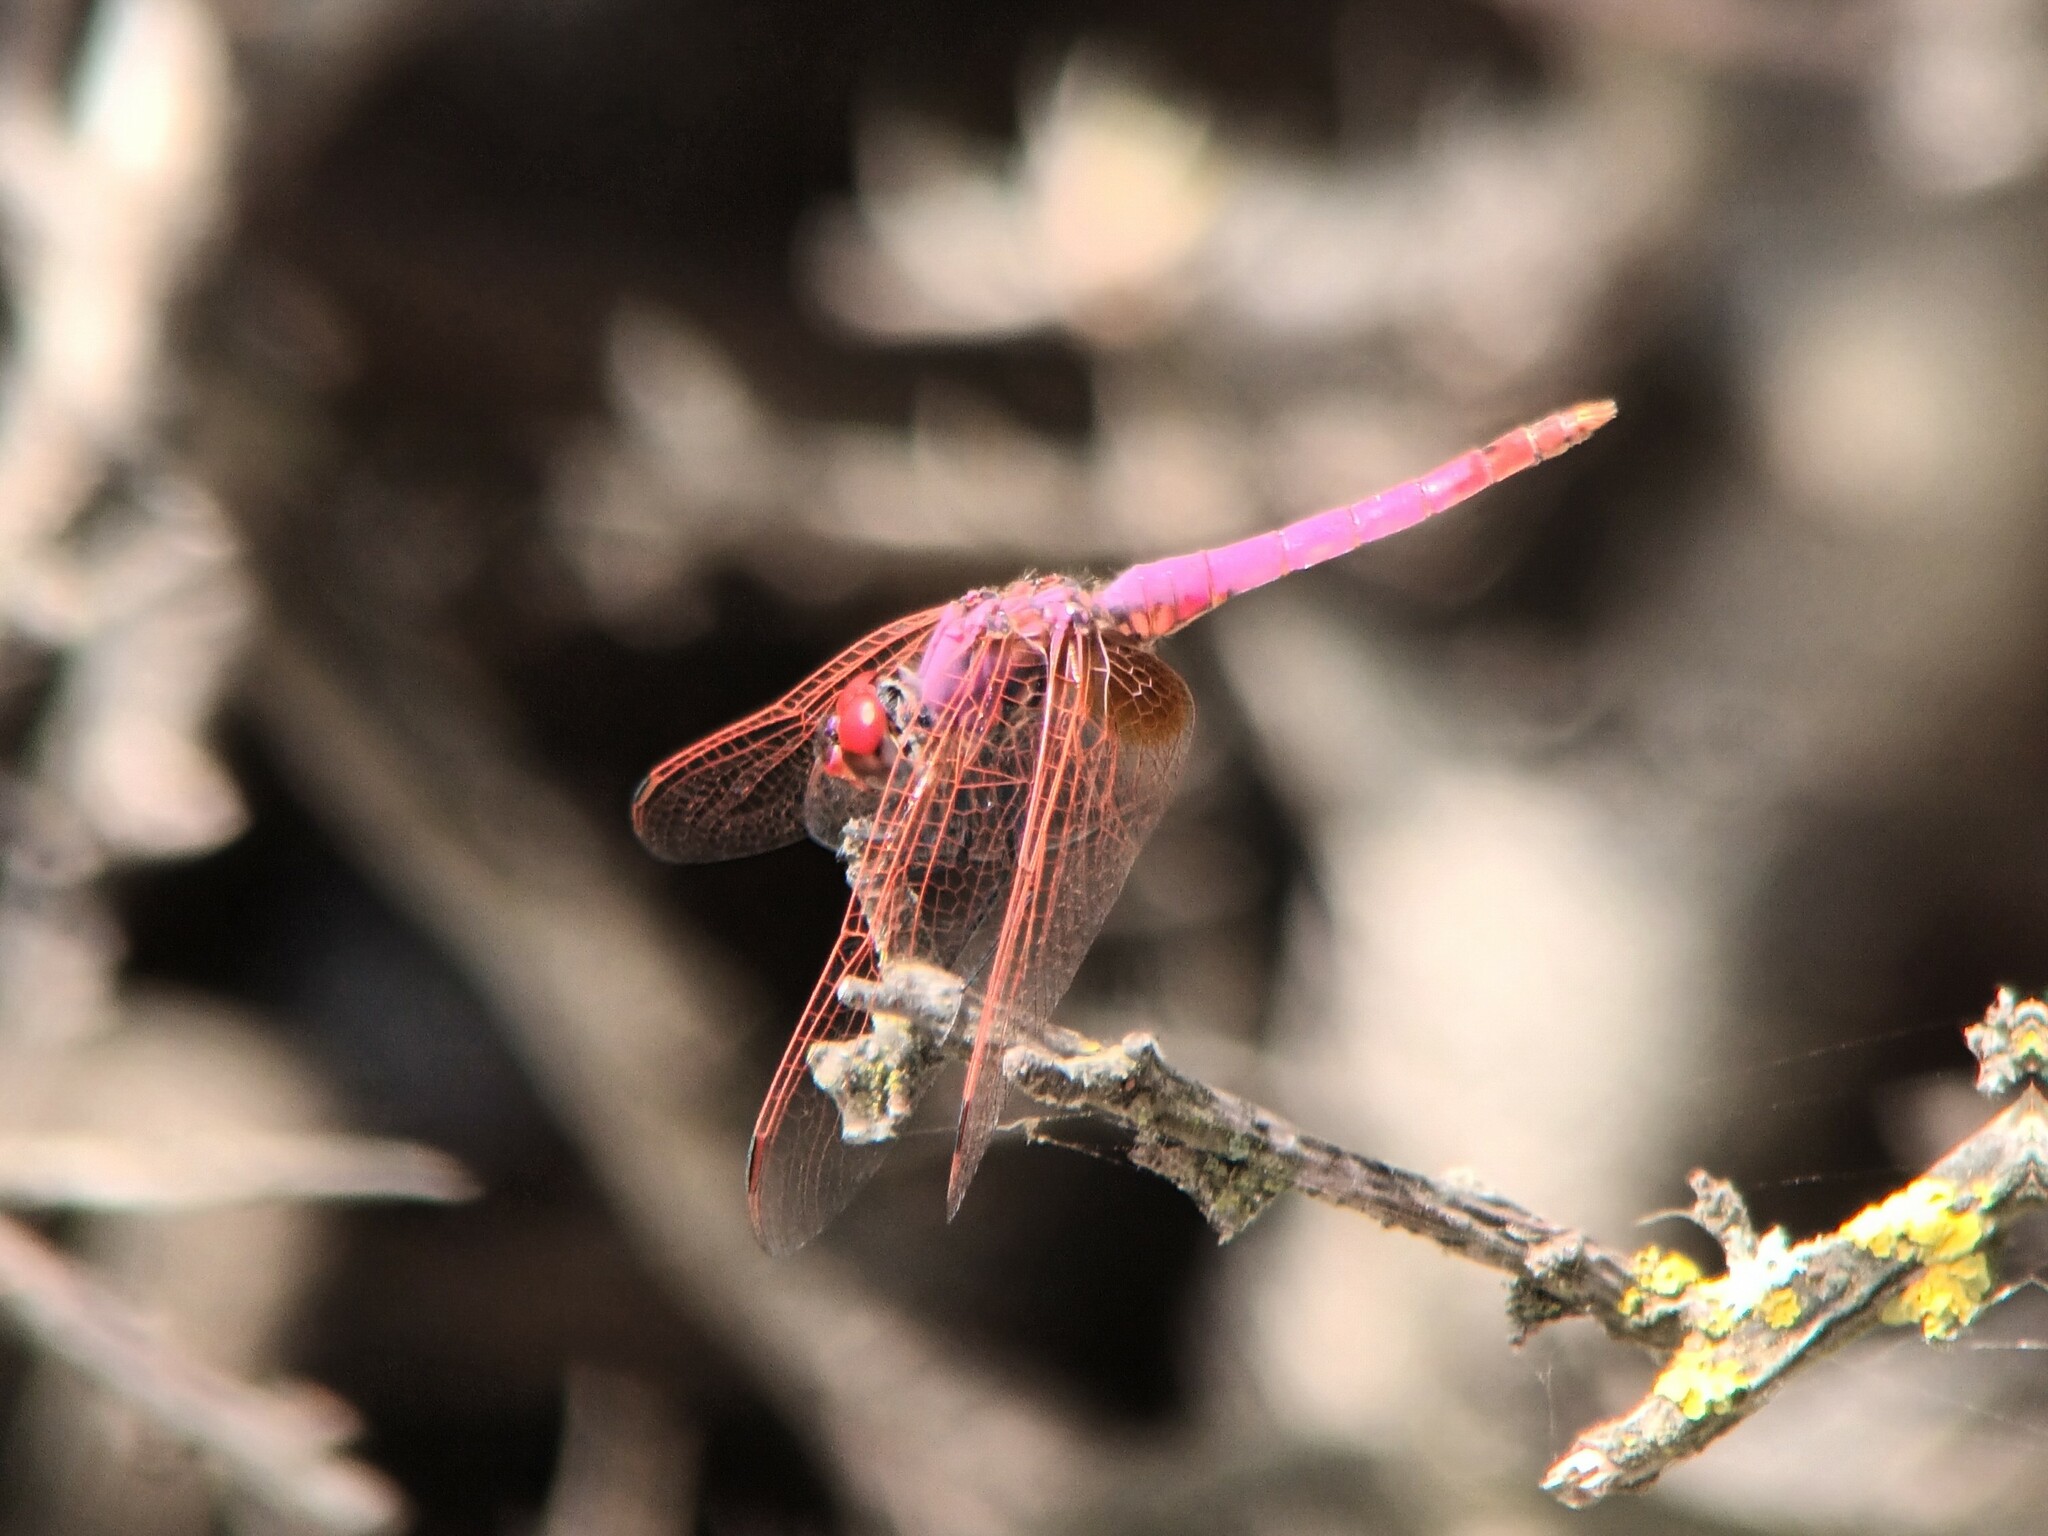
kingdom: Animalia
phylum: Arthropoda
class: Insecta
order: Odonata
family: Libellulidae
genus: Trithemis
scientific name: Trithemis annulata
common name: Violet dropwing
